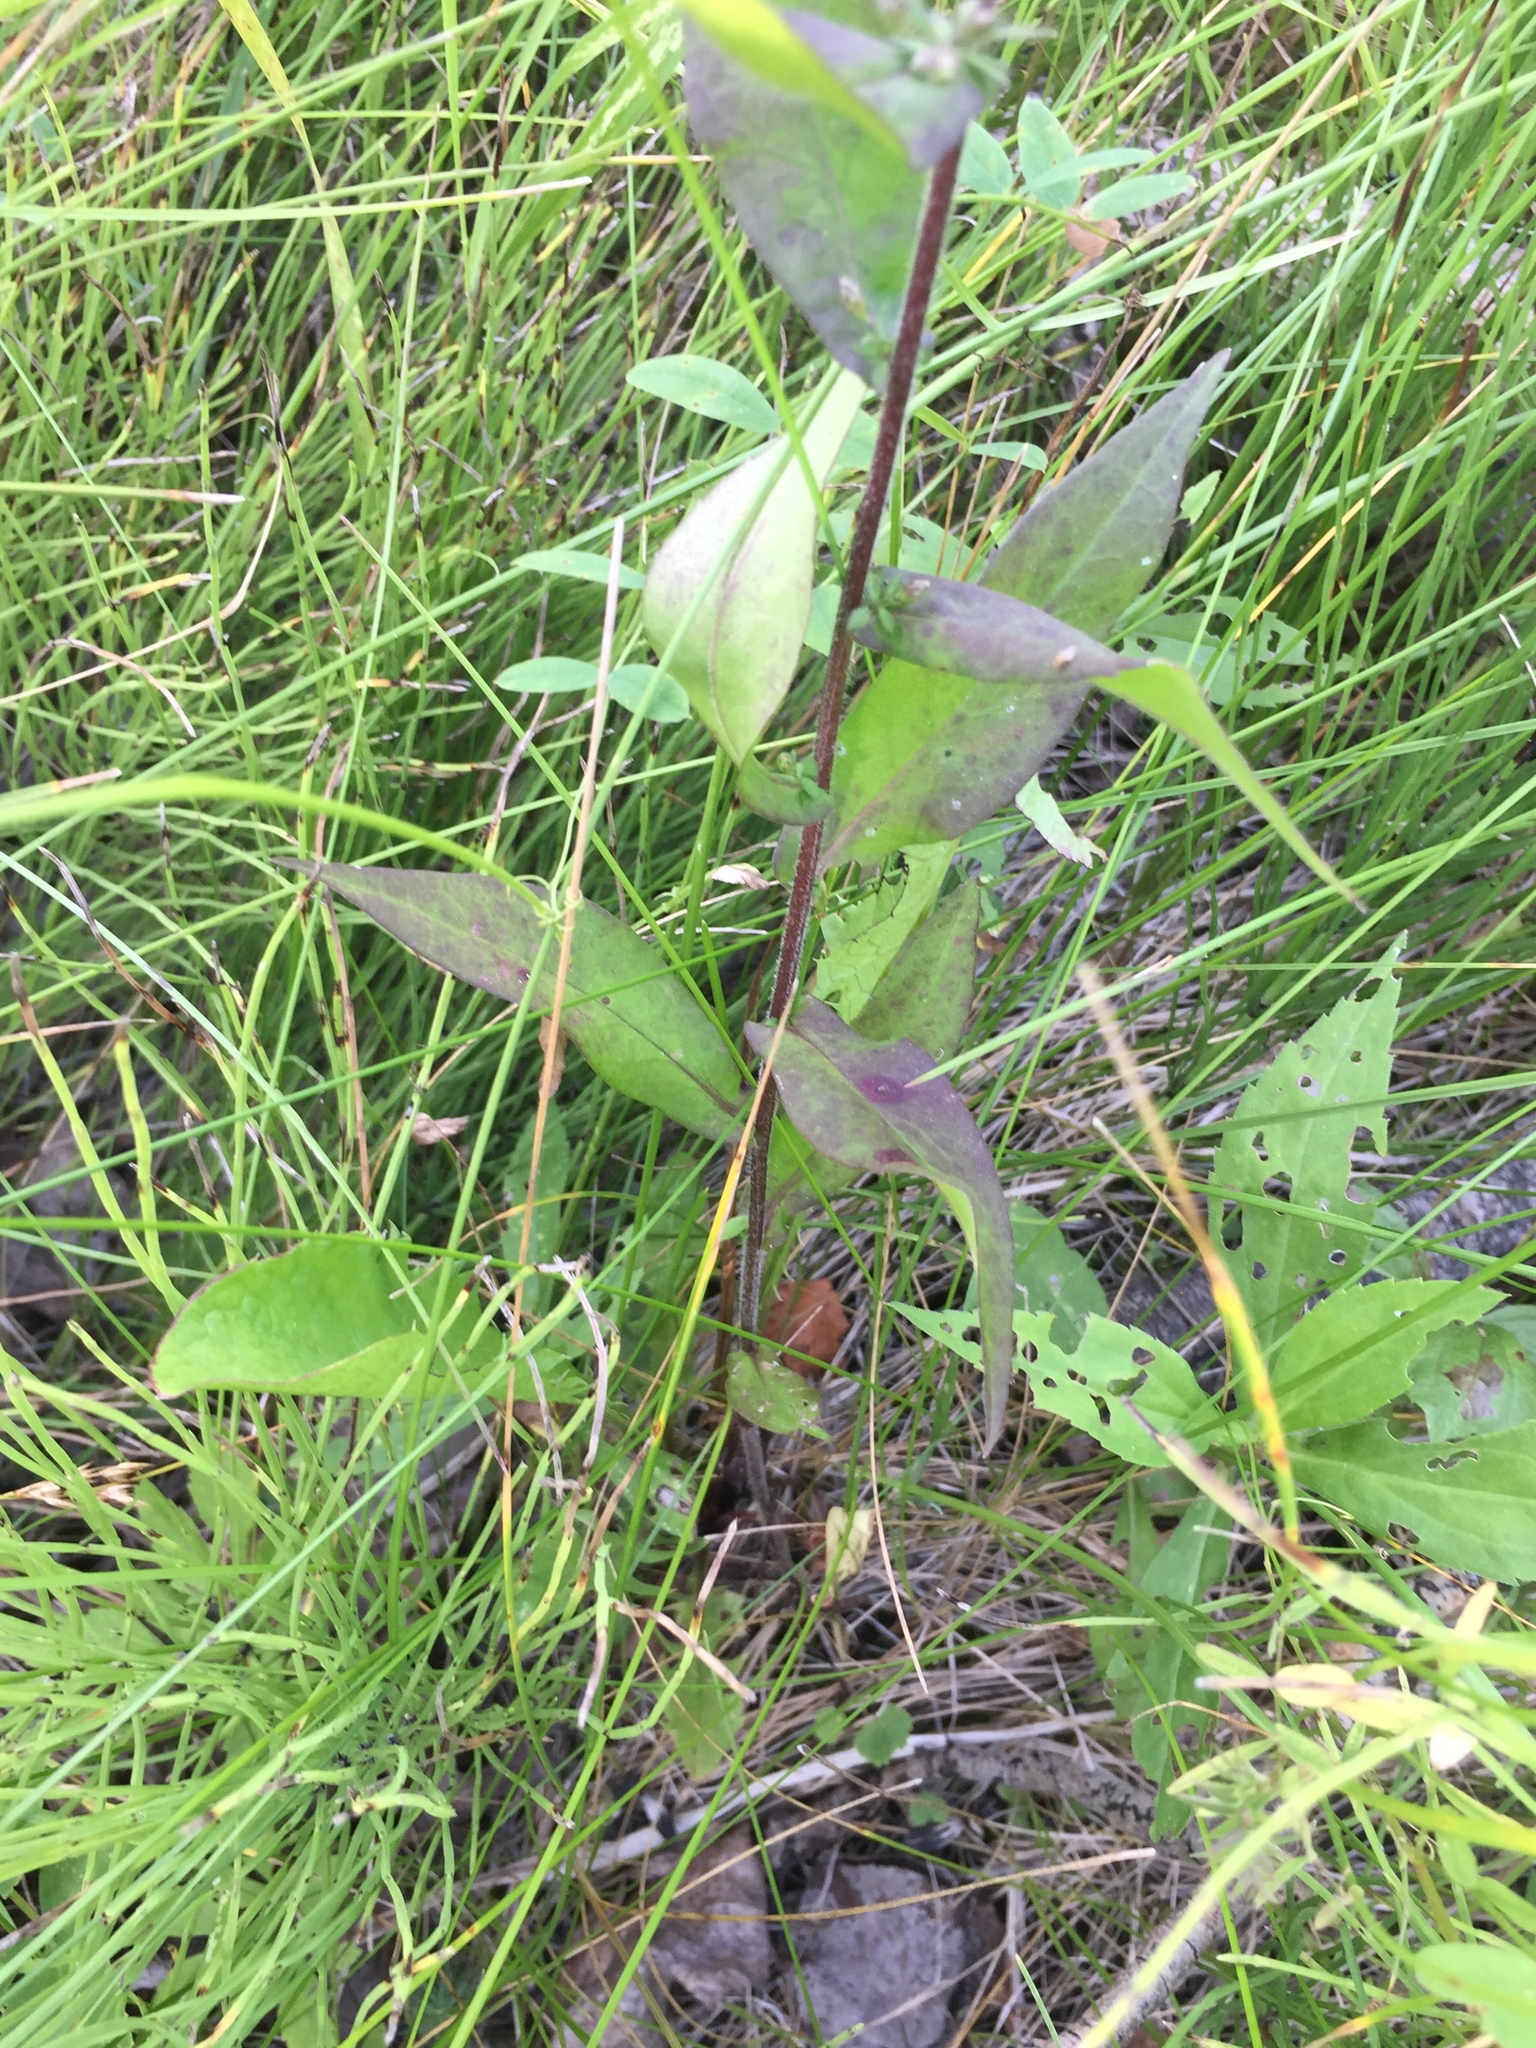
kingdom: Plantae
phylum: Tracheophyta
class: Magnoliopsida
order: Asterales
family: Asteraceae
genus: Symphyotrichum
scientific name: Symphyotrichum lateriflorum
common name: Calico aster
